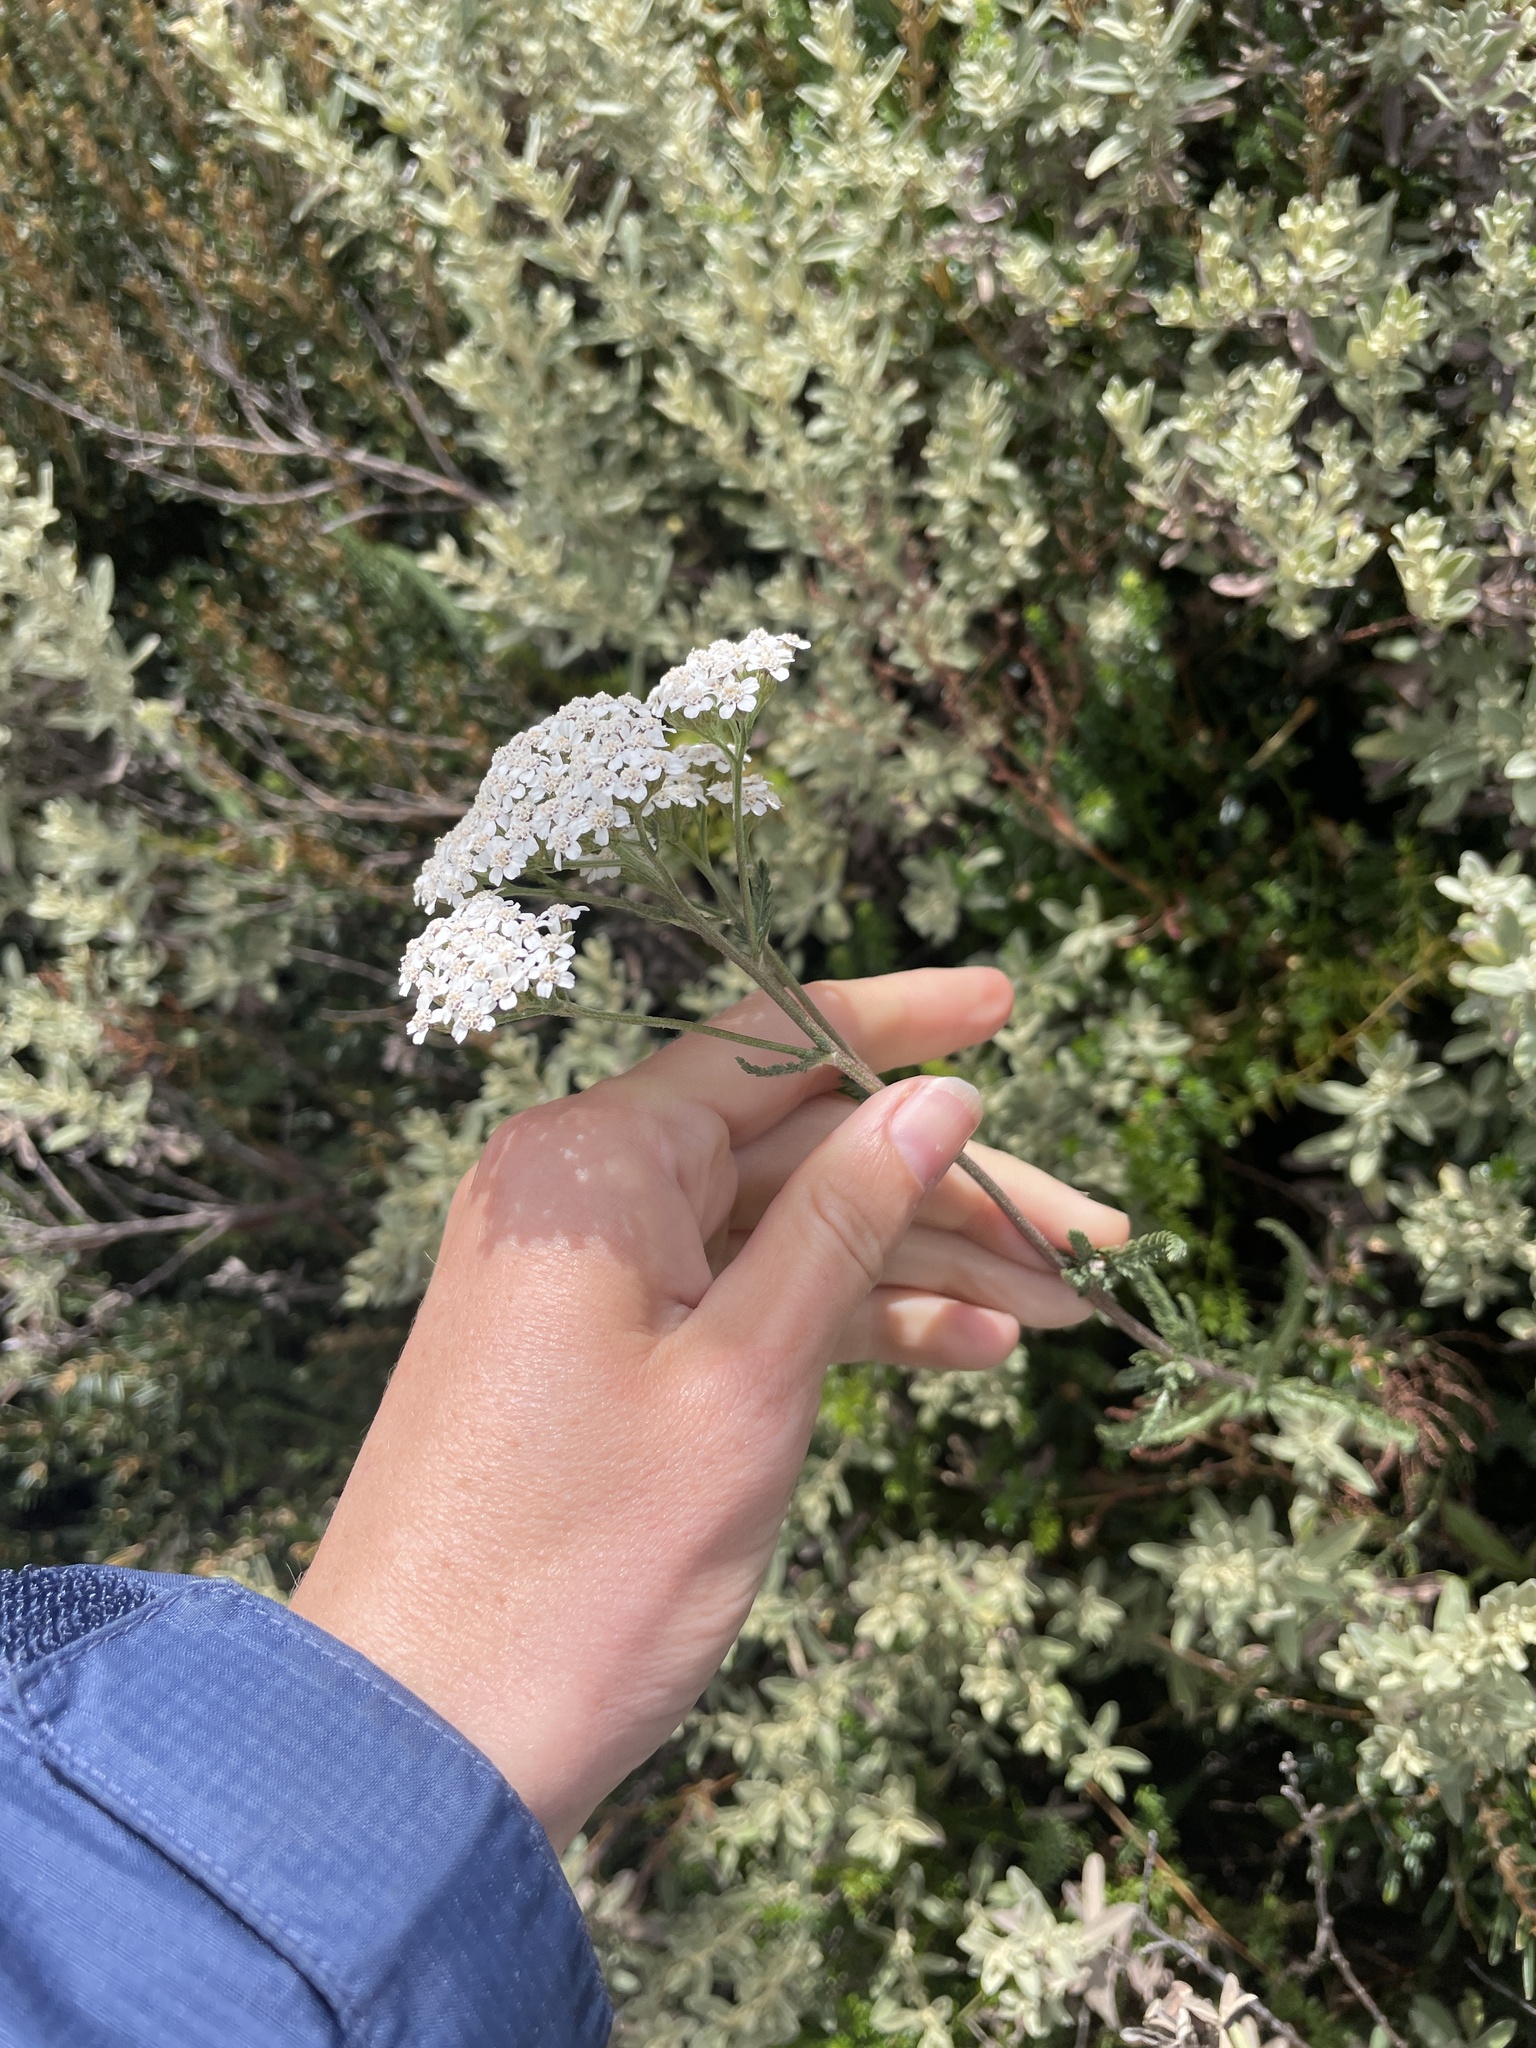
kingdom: Plantae
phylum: Tracheophyta
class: Magnoliopsida
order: Asterales
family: Asteraceae
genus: Achillea
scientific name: Achillea millefolium
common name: Yarrow
